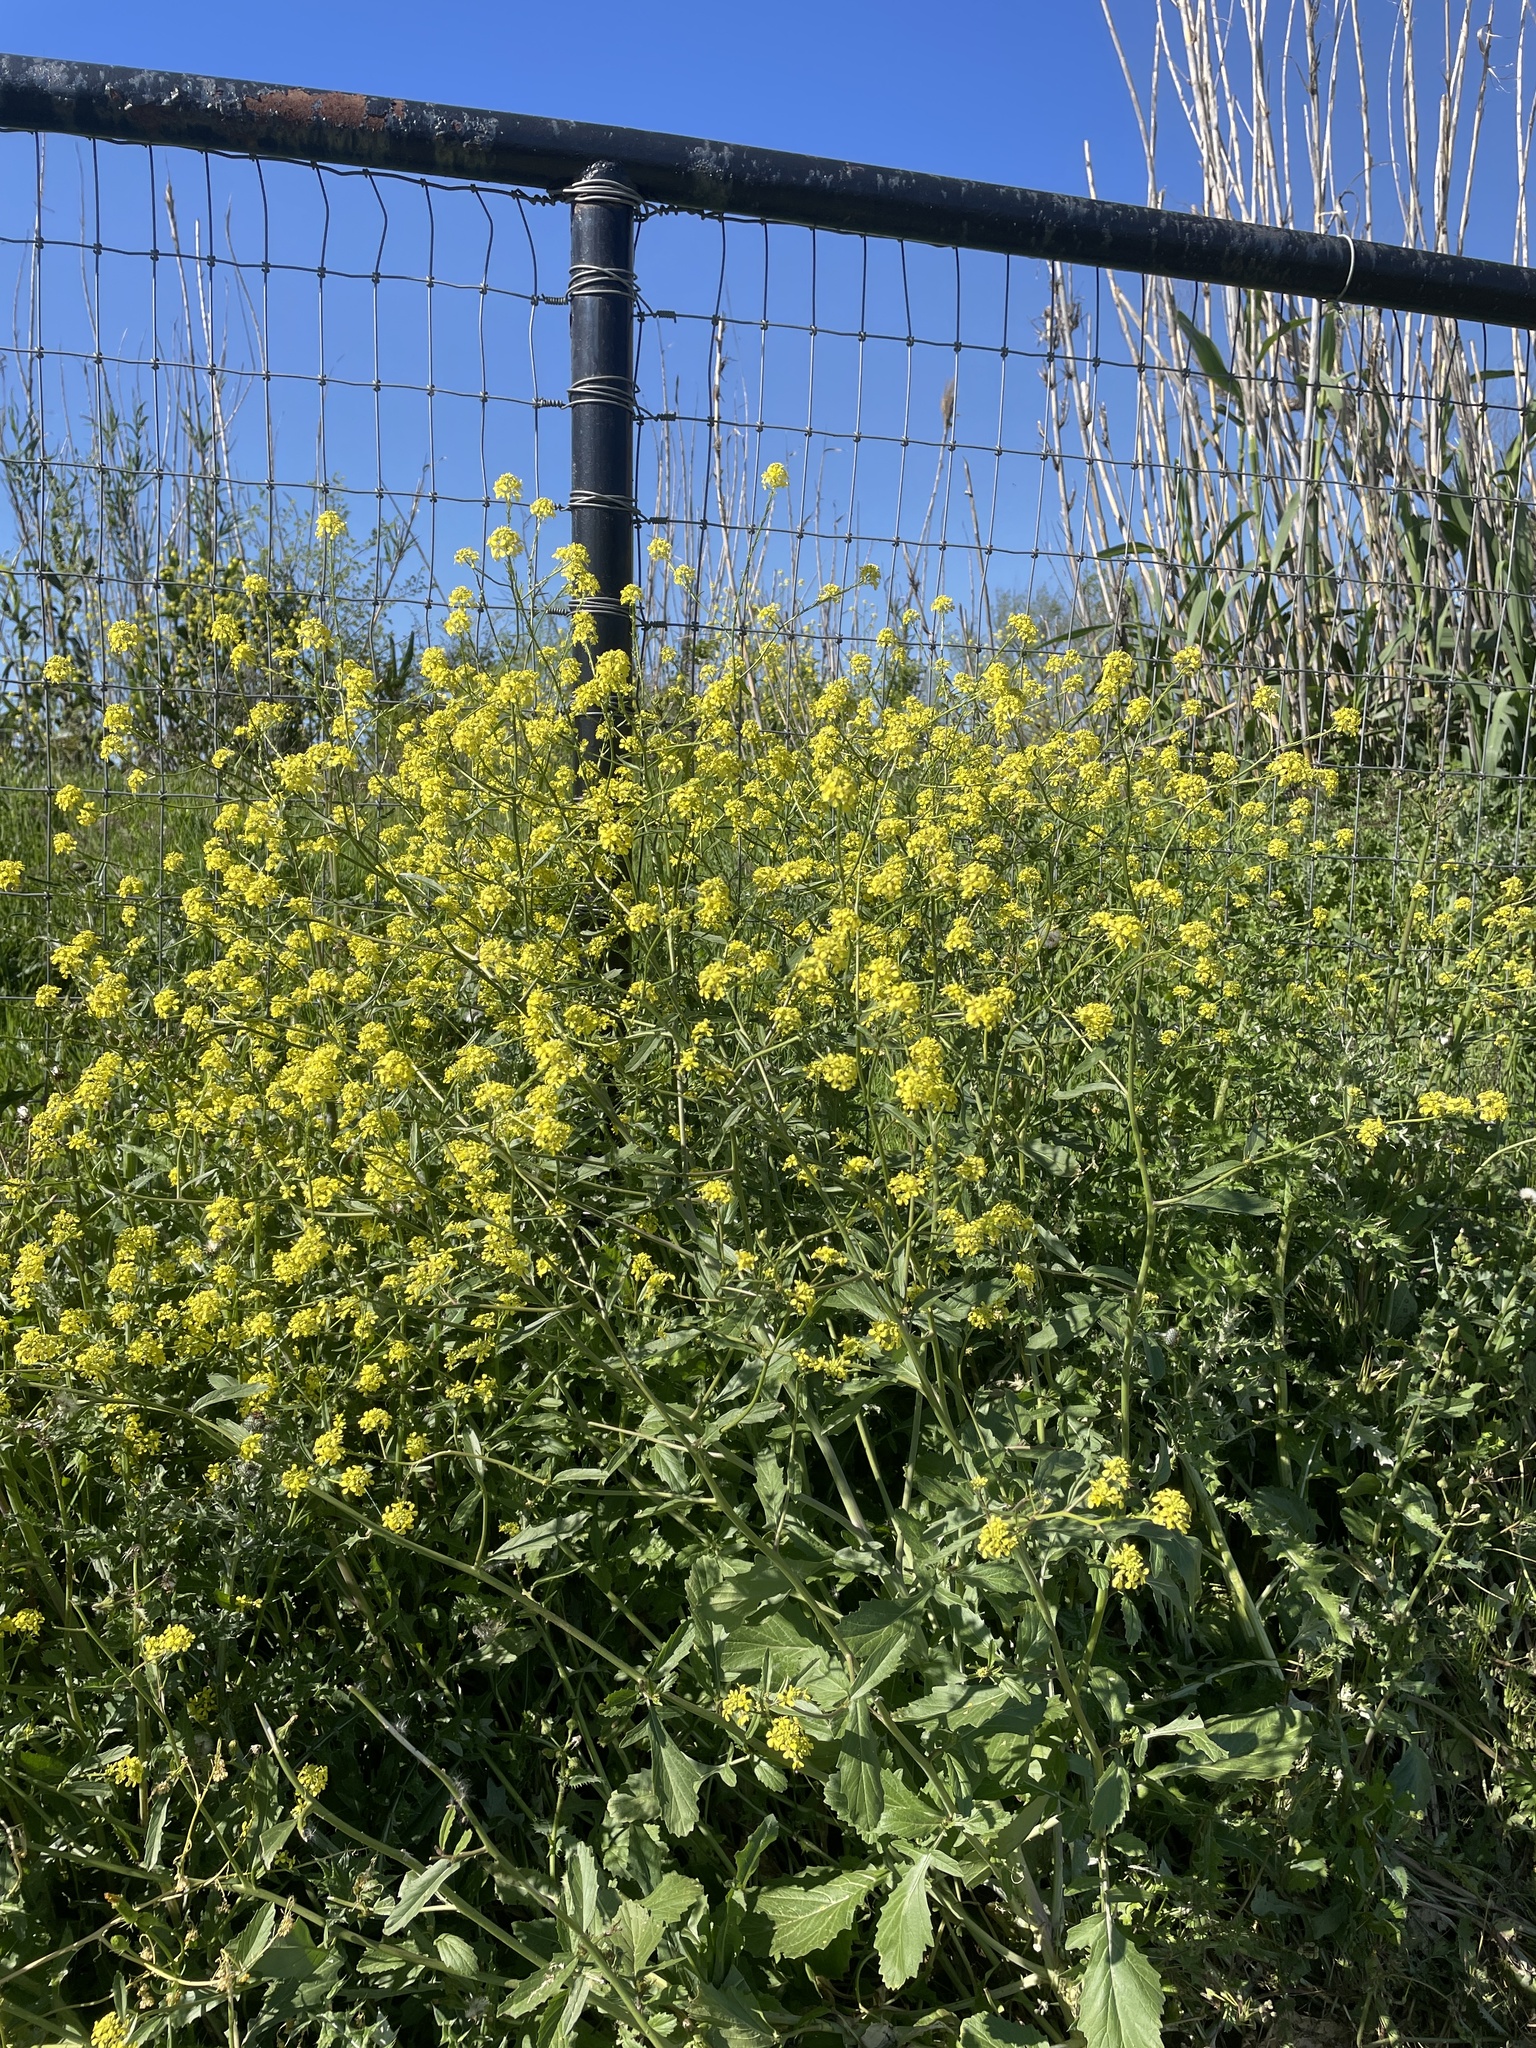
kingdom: Plantae
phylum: Tracheophyta
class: Magnoliopsida
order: Brassicales
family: Brassicaceae
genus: Rapistrum
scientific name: Rapistrum rugosum
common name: Annual bastardcabbage
